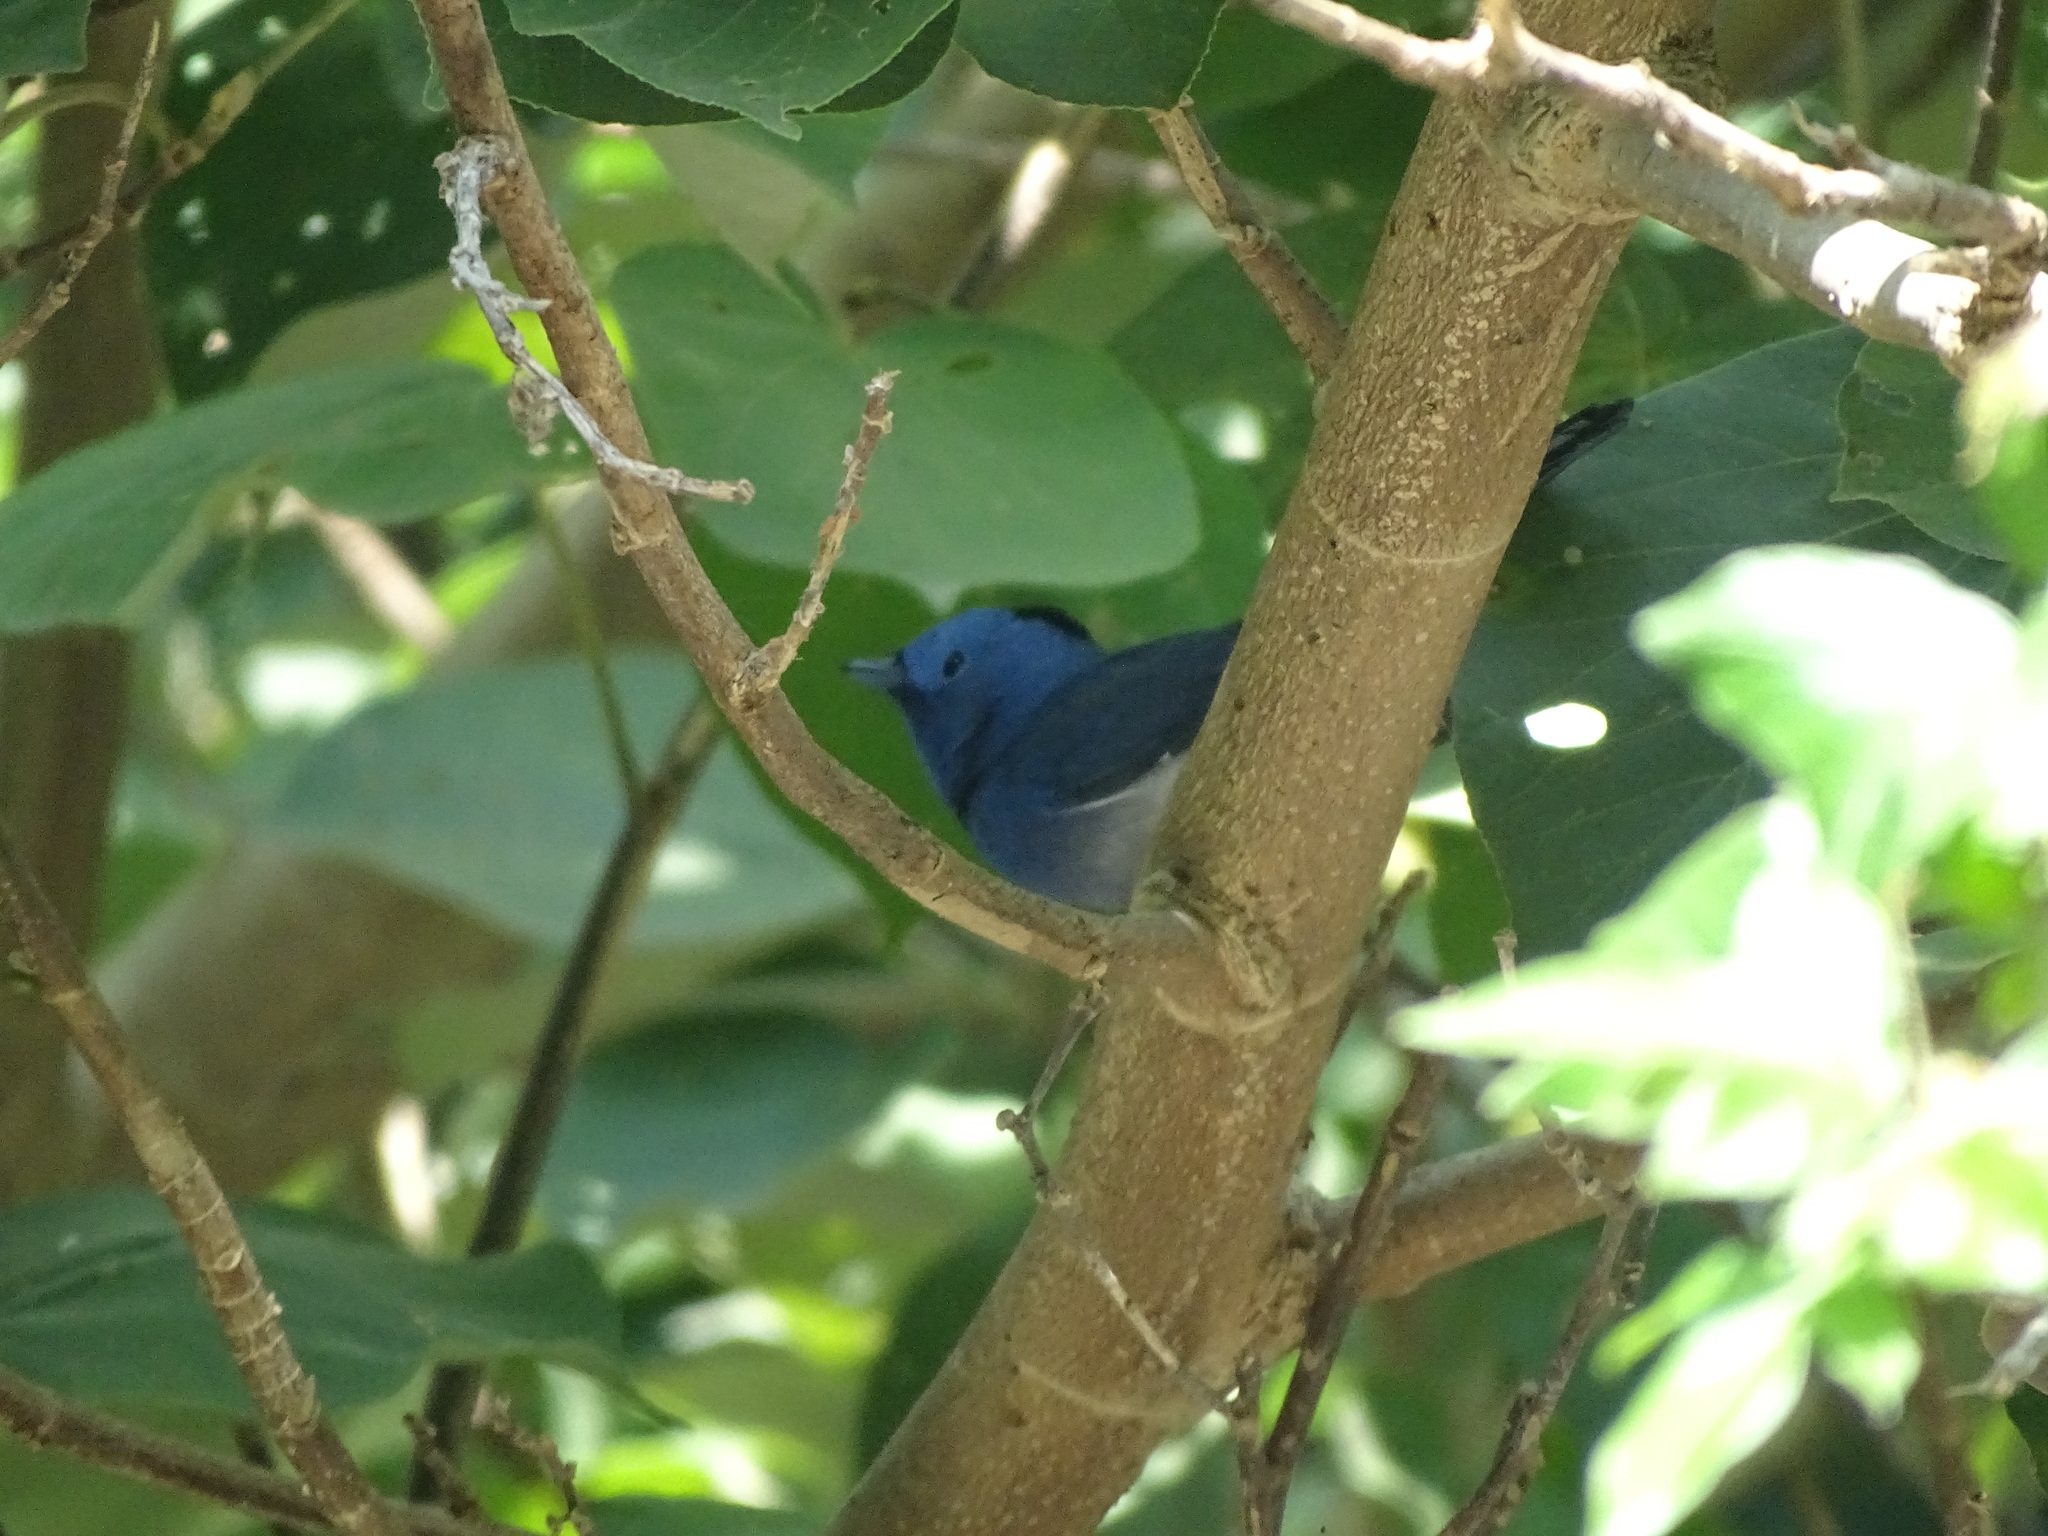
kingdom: Animalia
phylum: Chordata
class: Aves
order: Passeriformes
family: Monarchidae
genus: Hypothymis
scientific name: Hypothymis azurea
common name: Black-naped monarch
